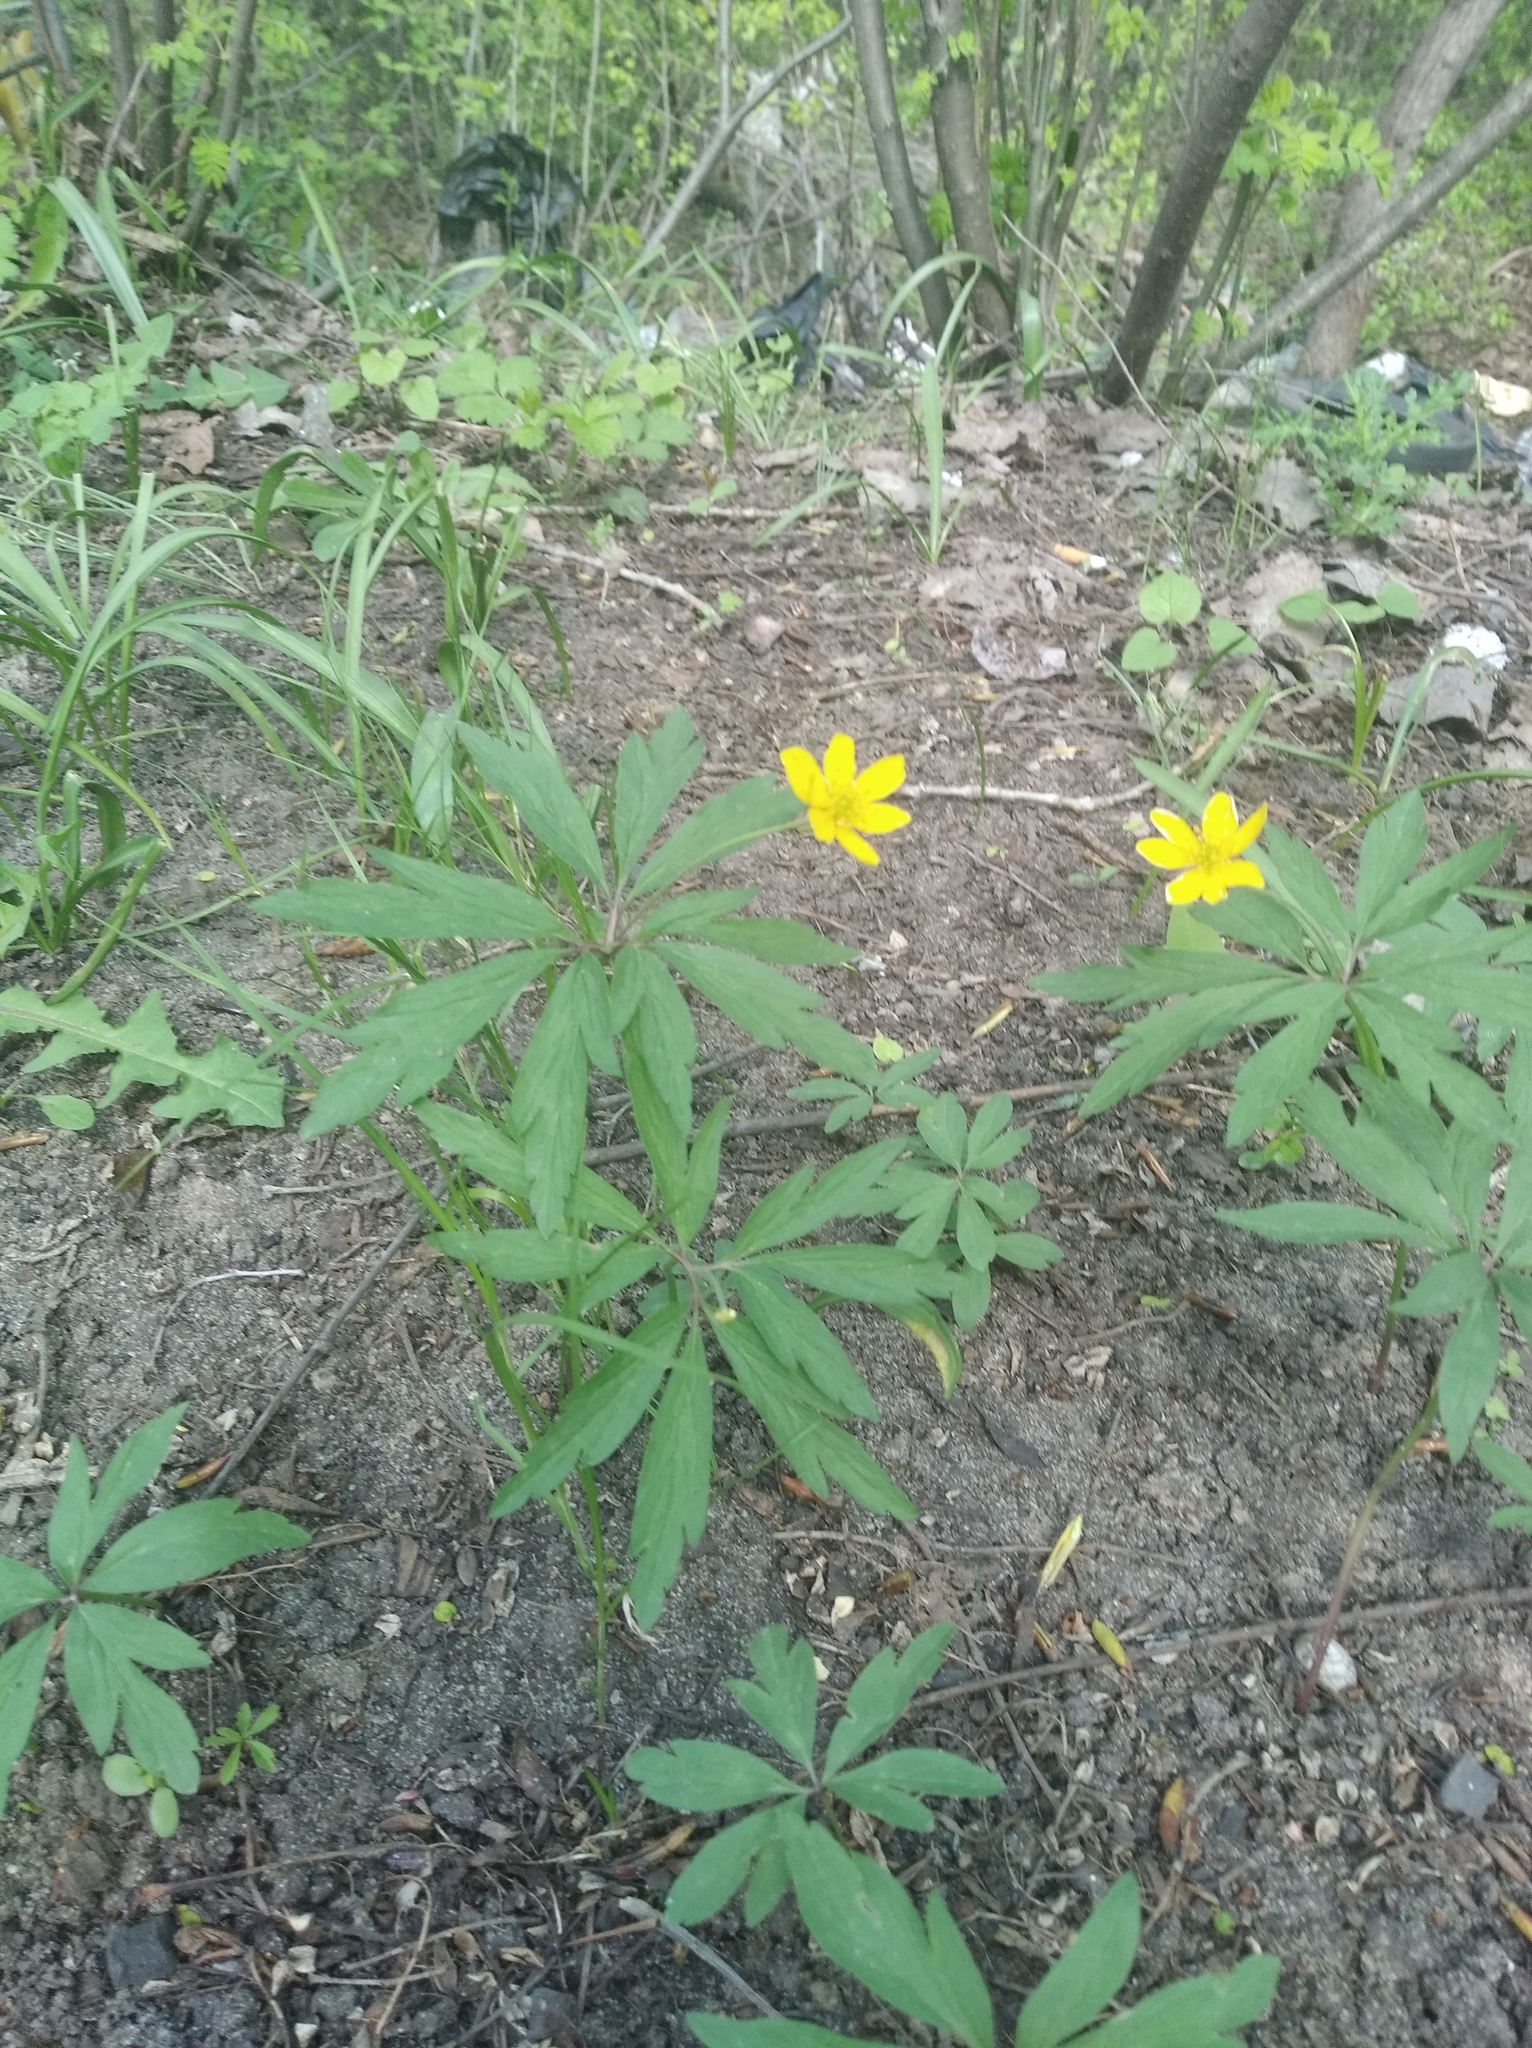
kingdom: Plantae
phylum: Tracheophyta
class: Magnoliopsida
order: Ranunculales
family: Ranunculaceae
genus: Anemone
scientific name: Anemone ranunculoides
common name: Yellow anemone
